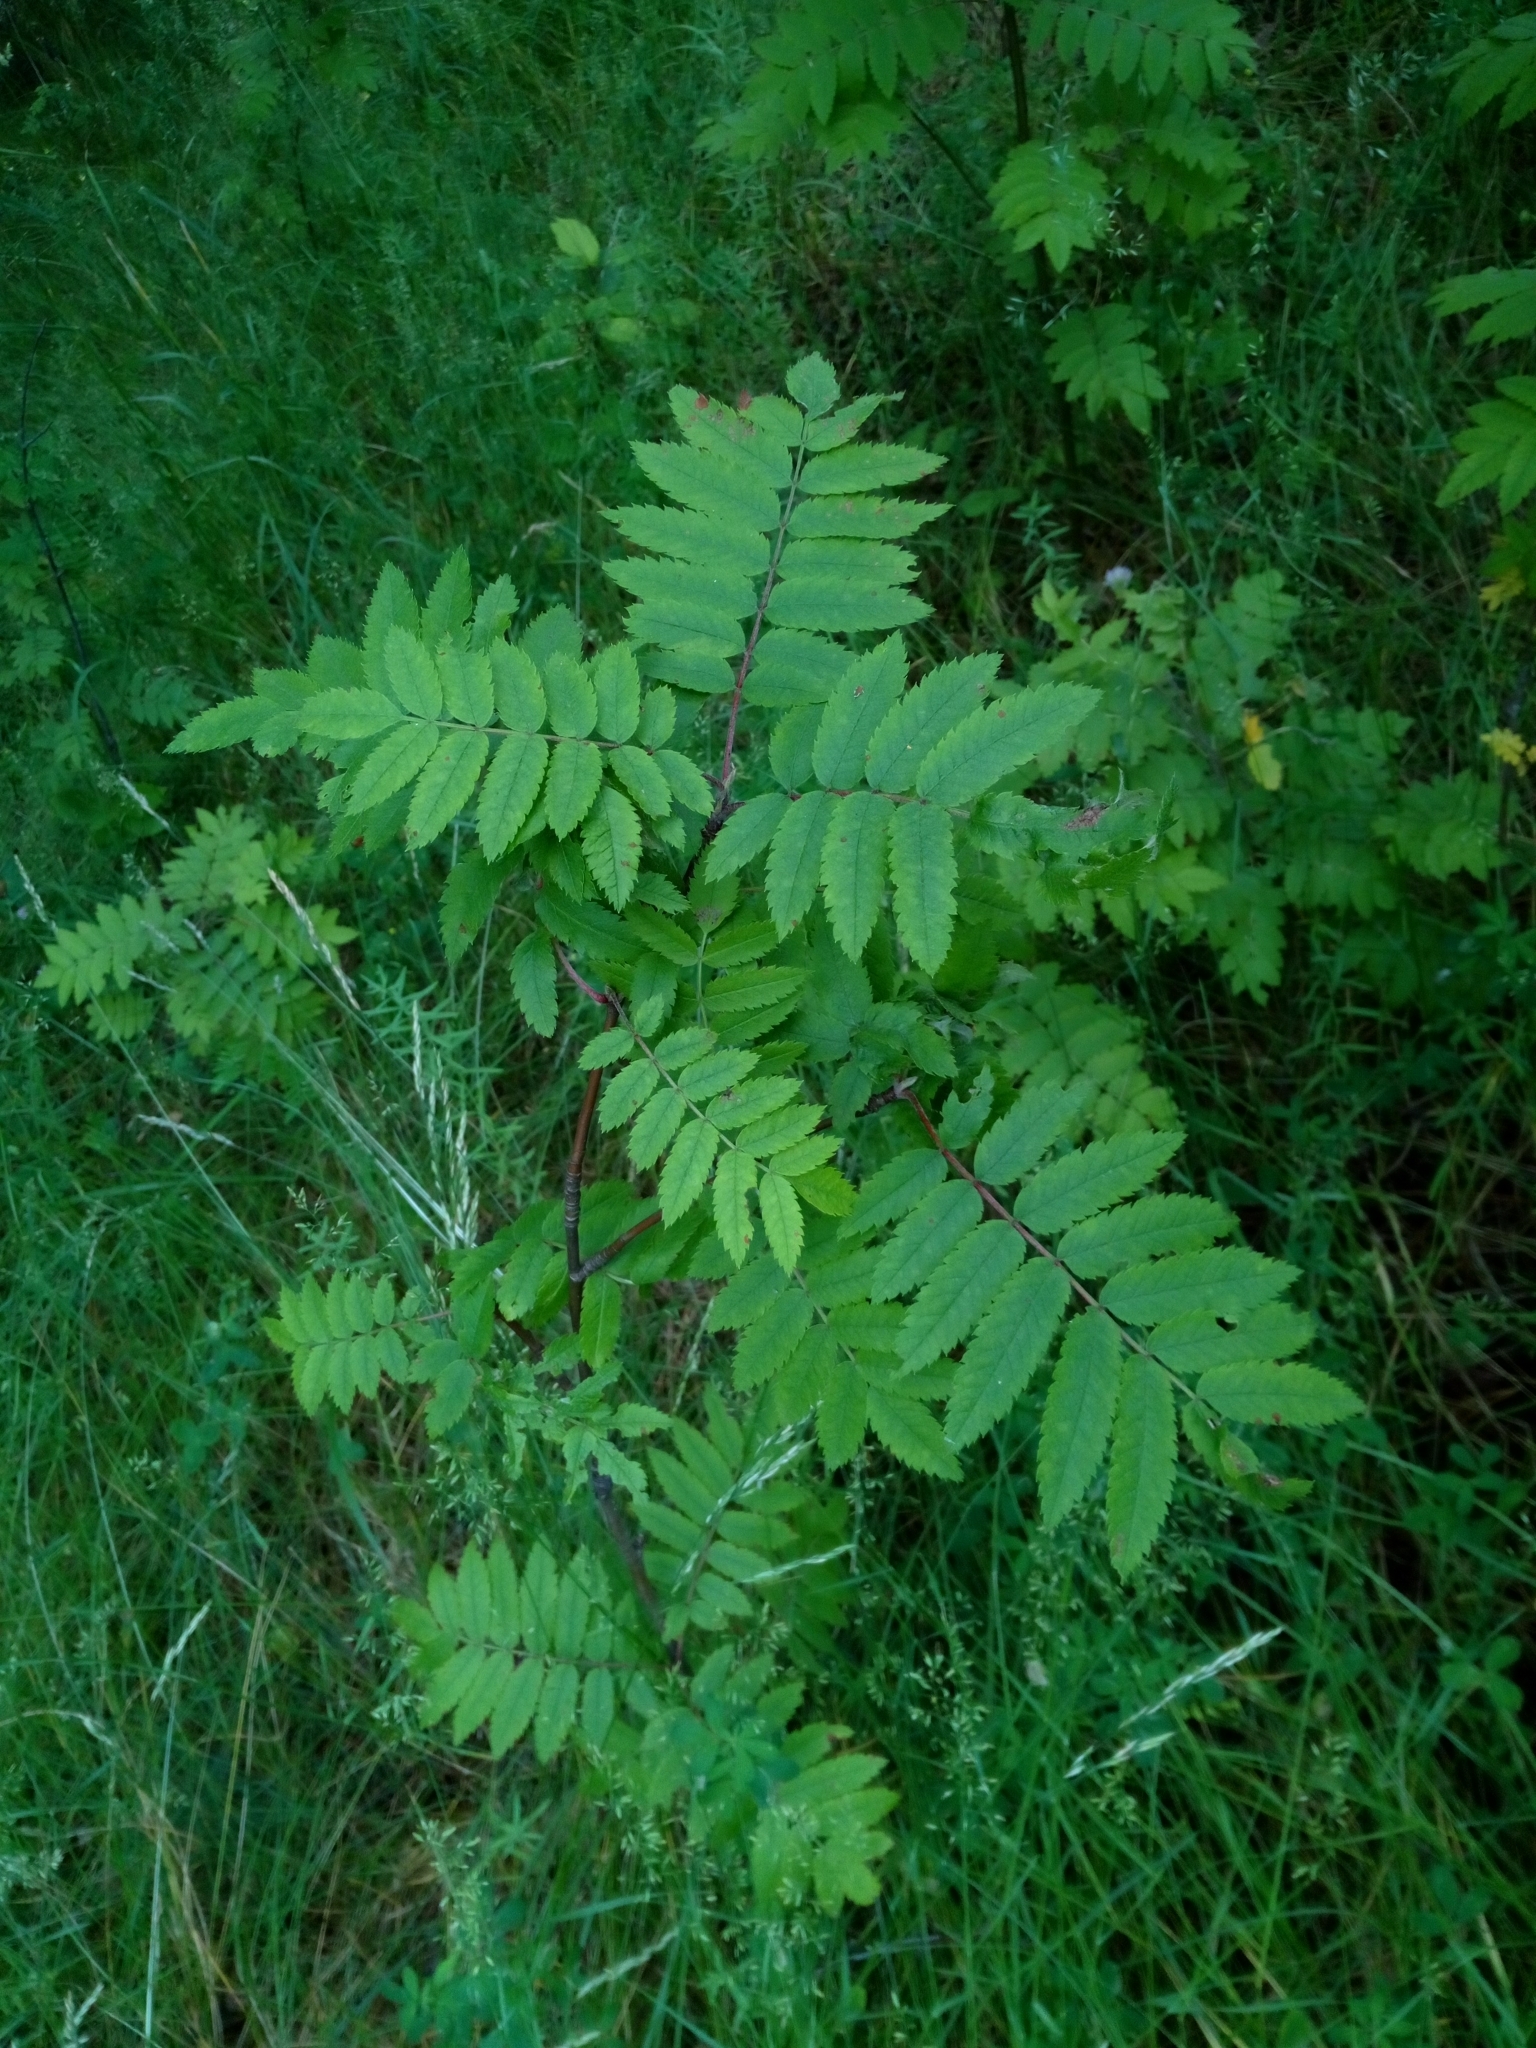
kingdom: Plantae
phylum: Tracheophyta
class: Magnoliopsida
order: Rosales
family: Rosaceae
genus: Sorbus
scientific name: Sorbus aucuparia
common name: Rowan
